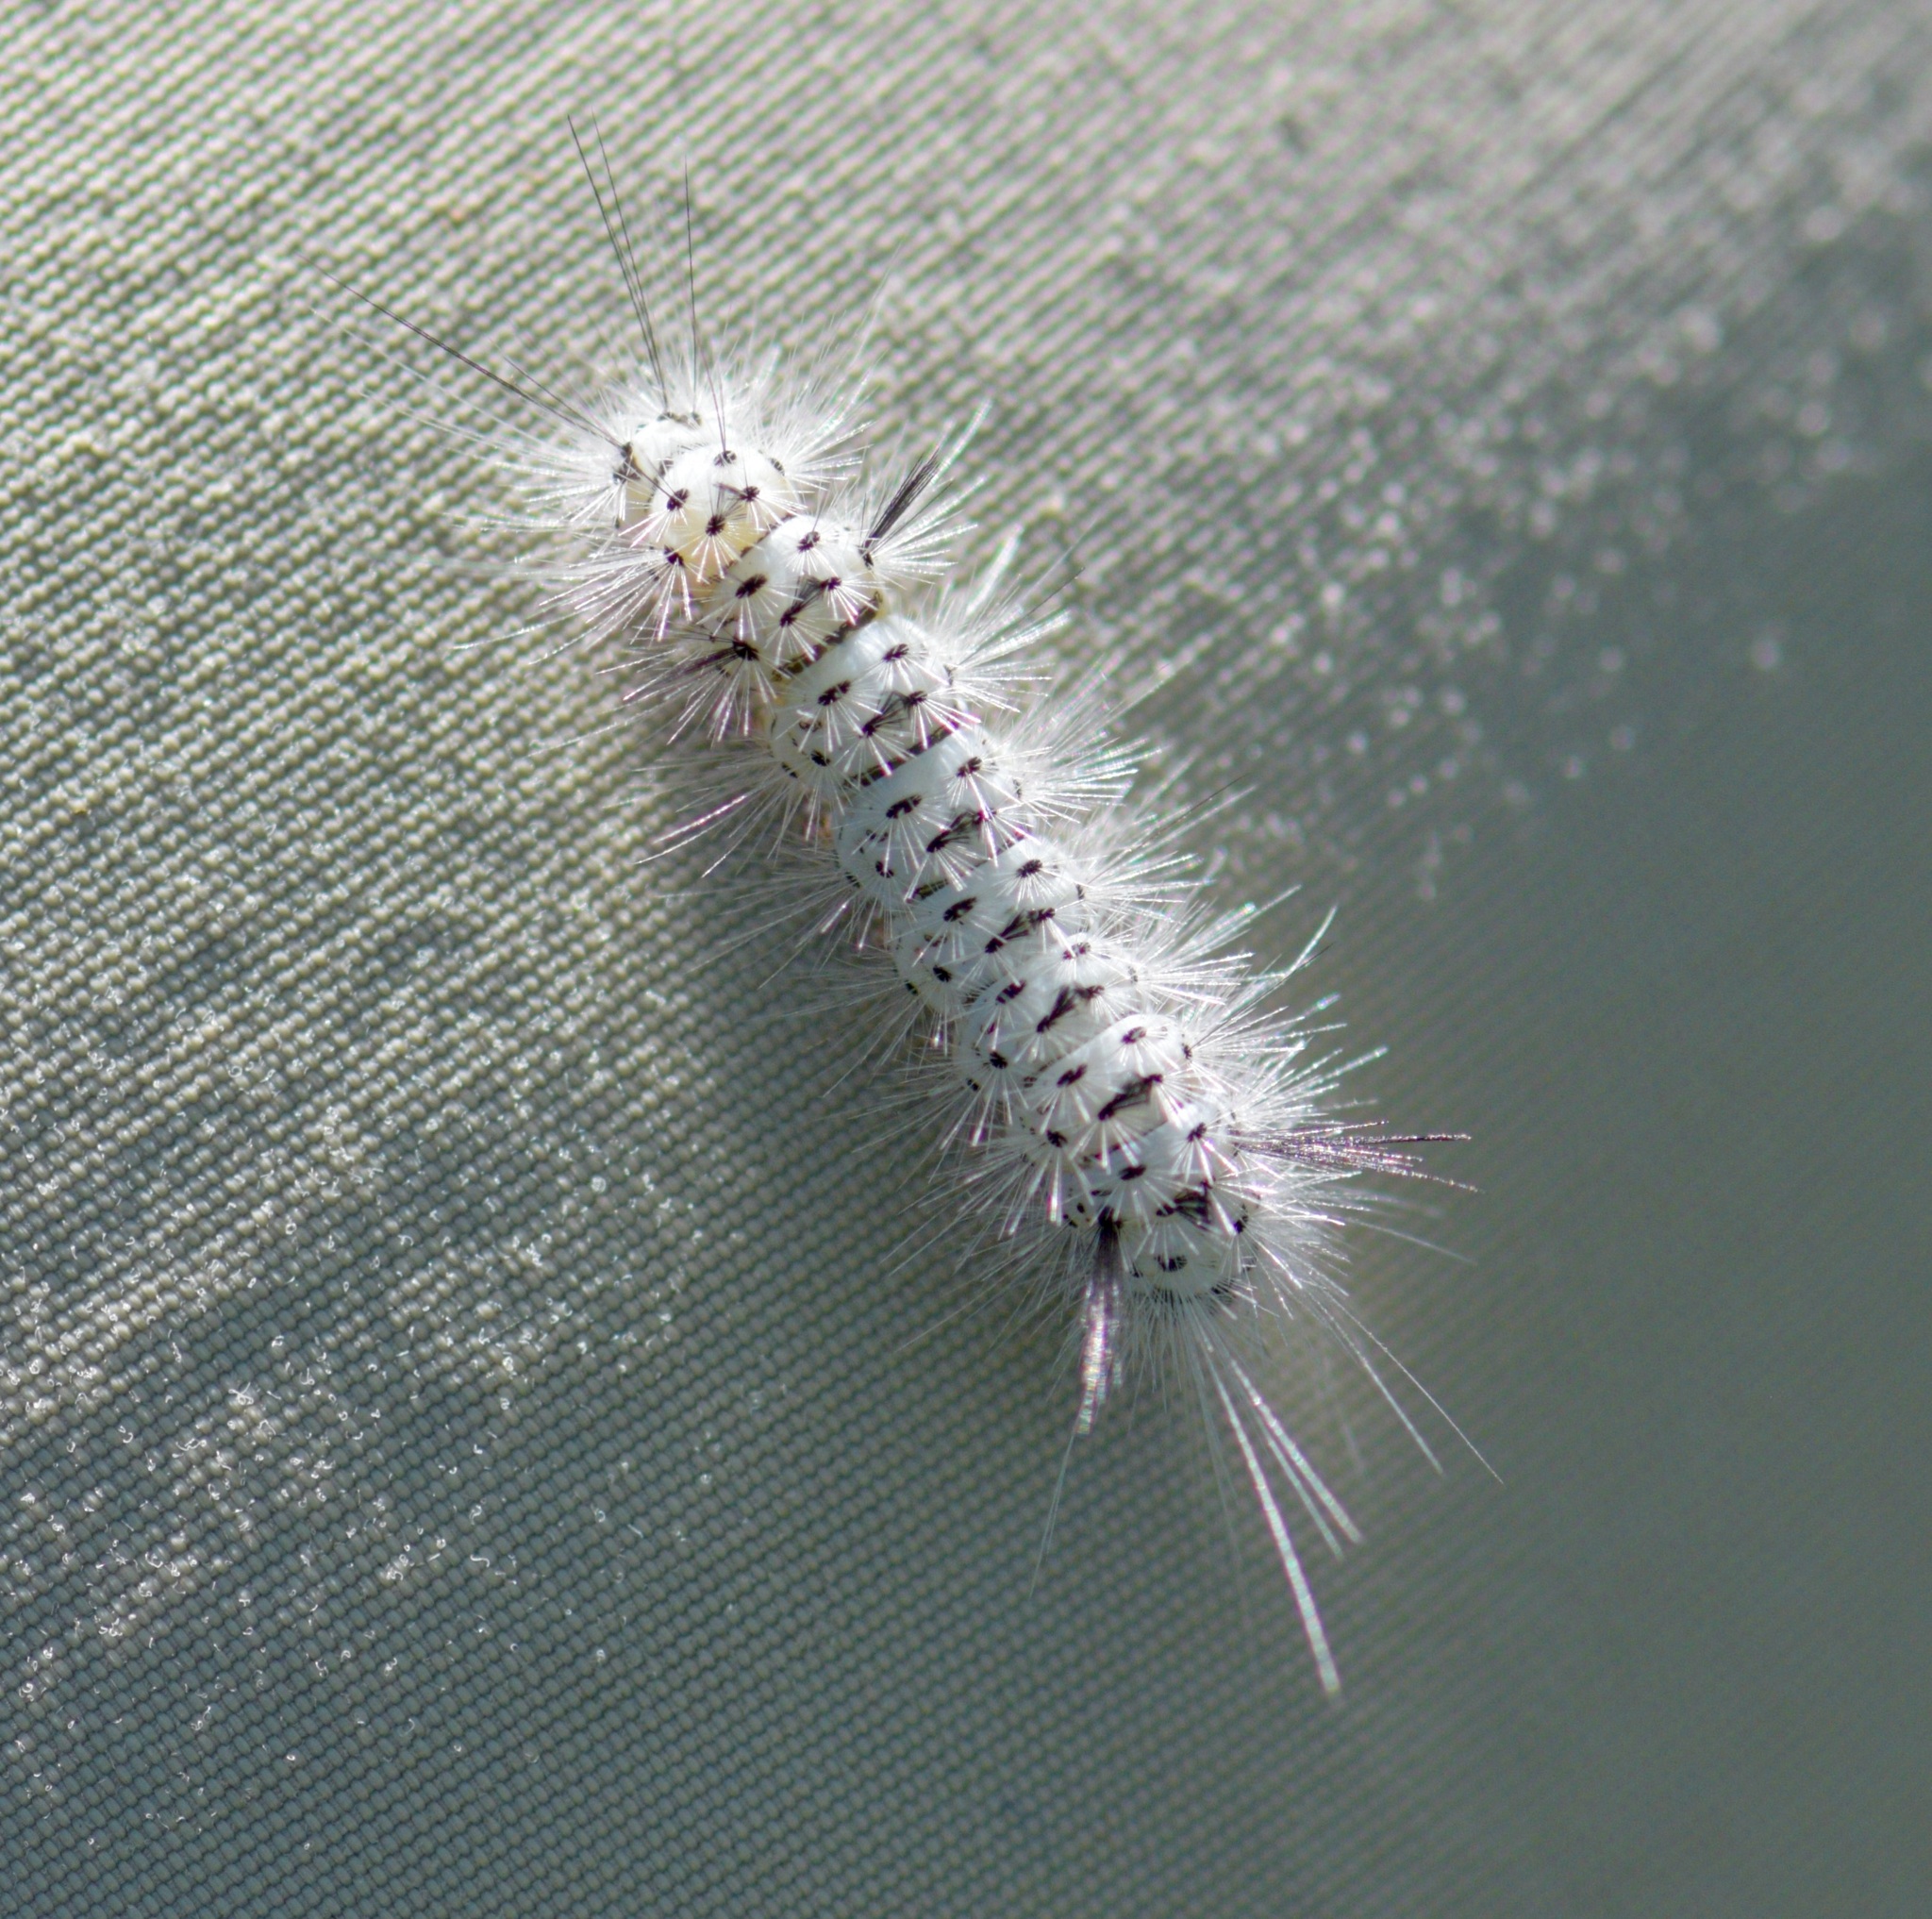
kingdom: Animalia
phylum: Arthropoda
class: Insecta
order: Lepidoptera
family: Erebidae
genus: Lophocampa
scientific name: Lophocampa caryae
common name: Hickory tussock moth
